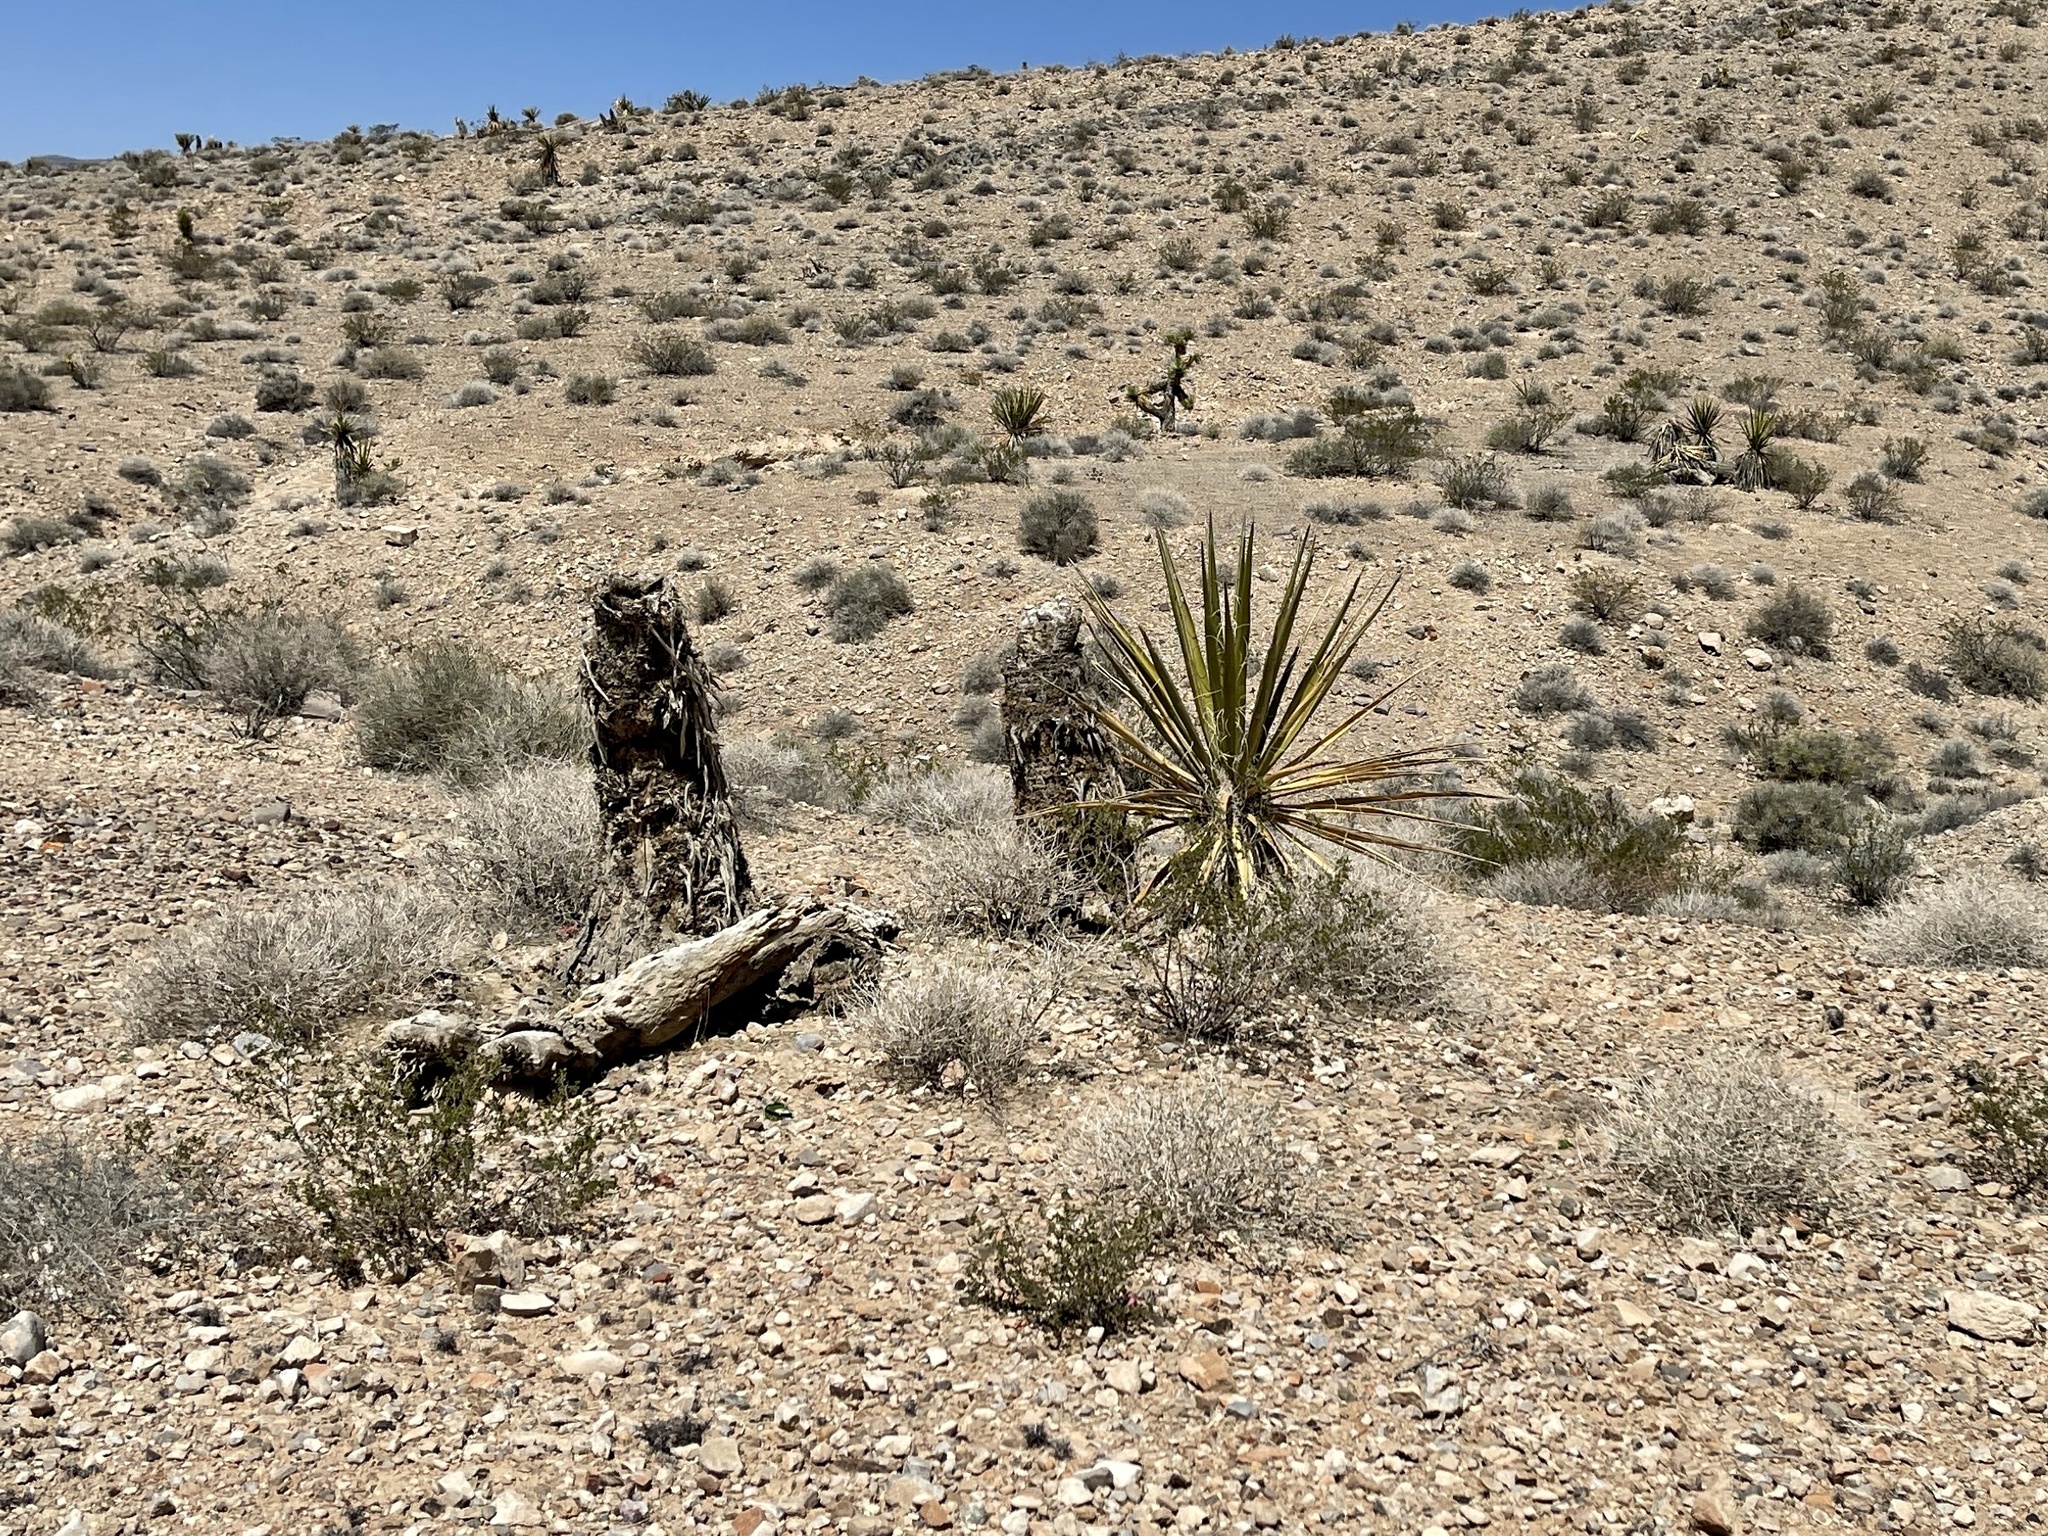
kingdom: Plantae
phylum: Tracheophyta
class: Liliopsida
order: Asparagales
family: Asparagaceae
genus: Yucca
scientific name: Yucca schidigera
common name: Mojave yucca
